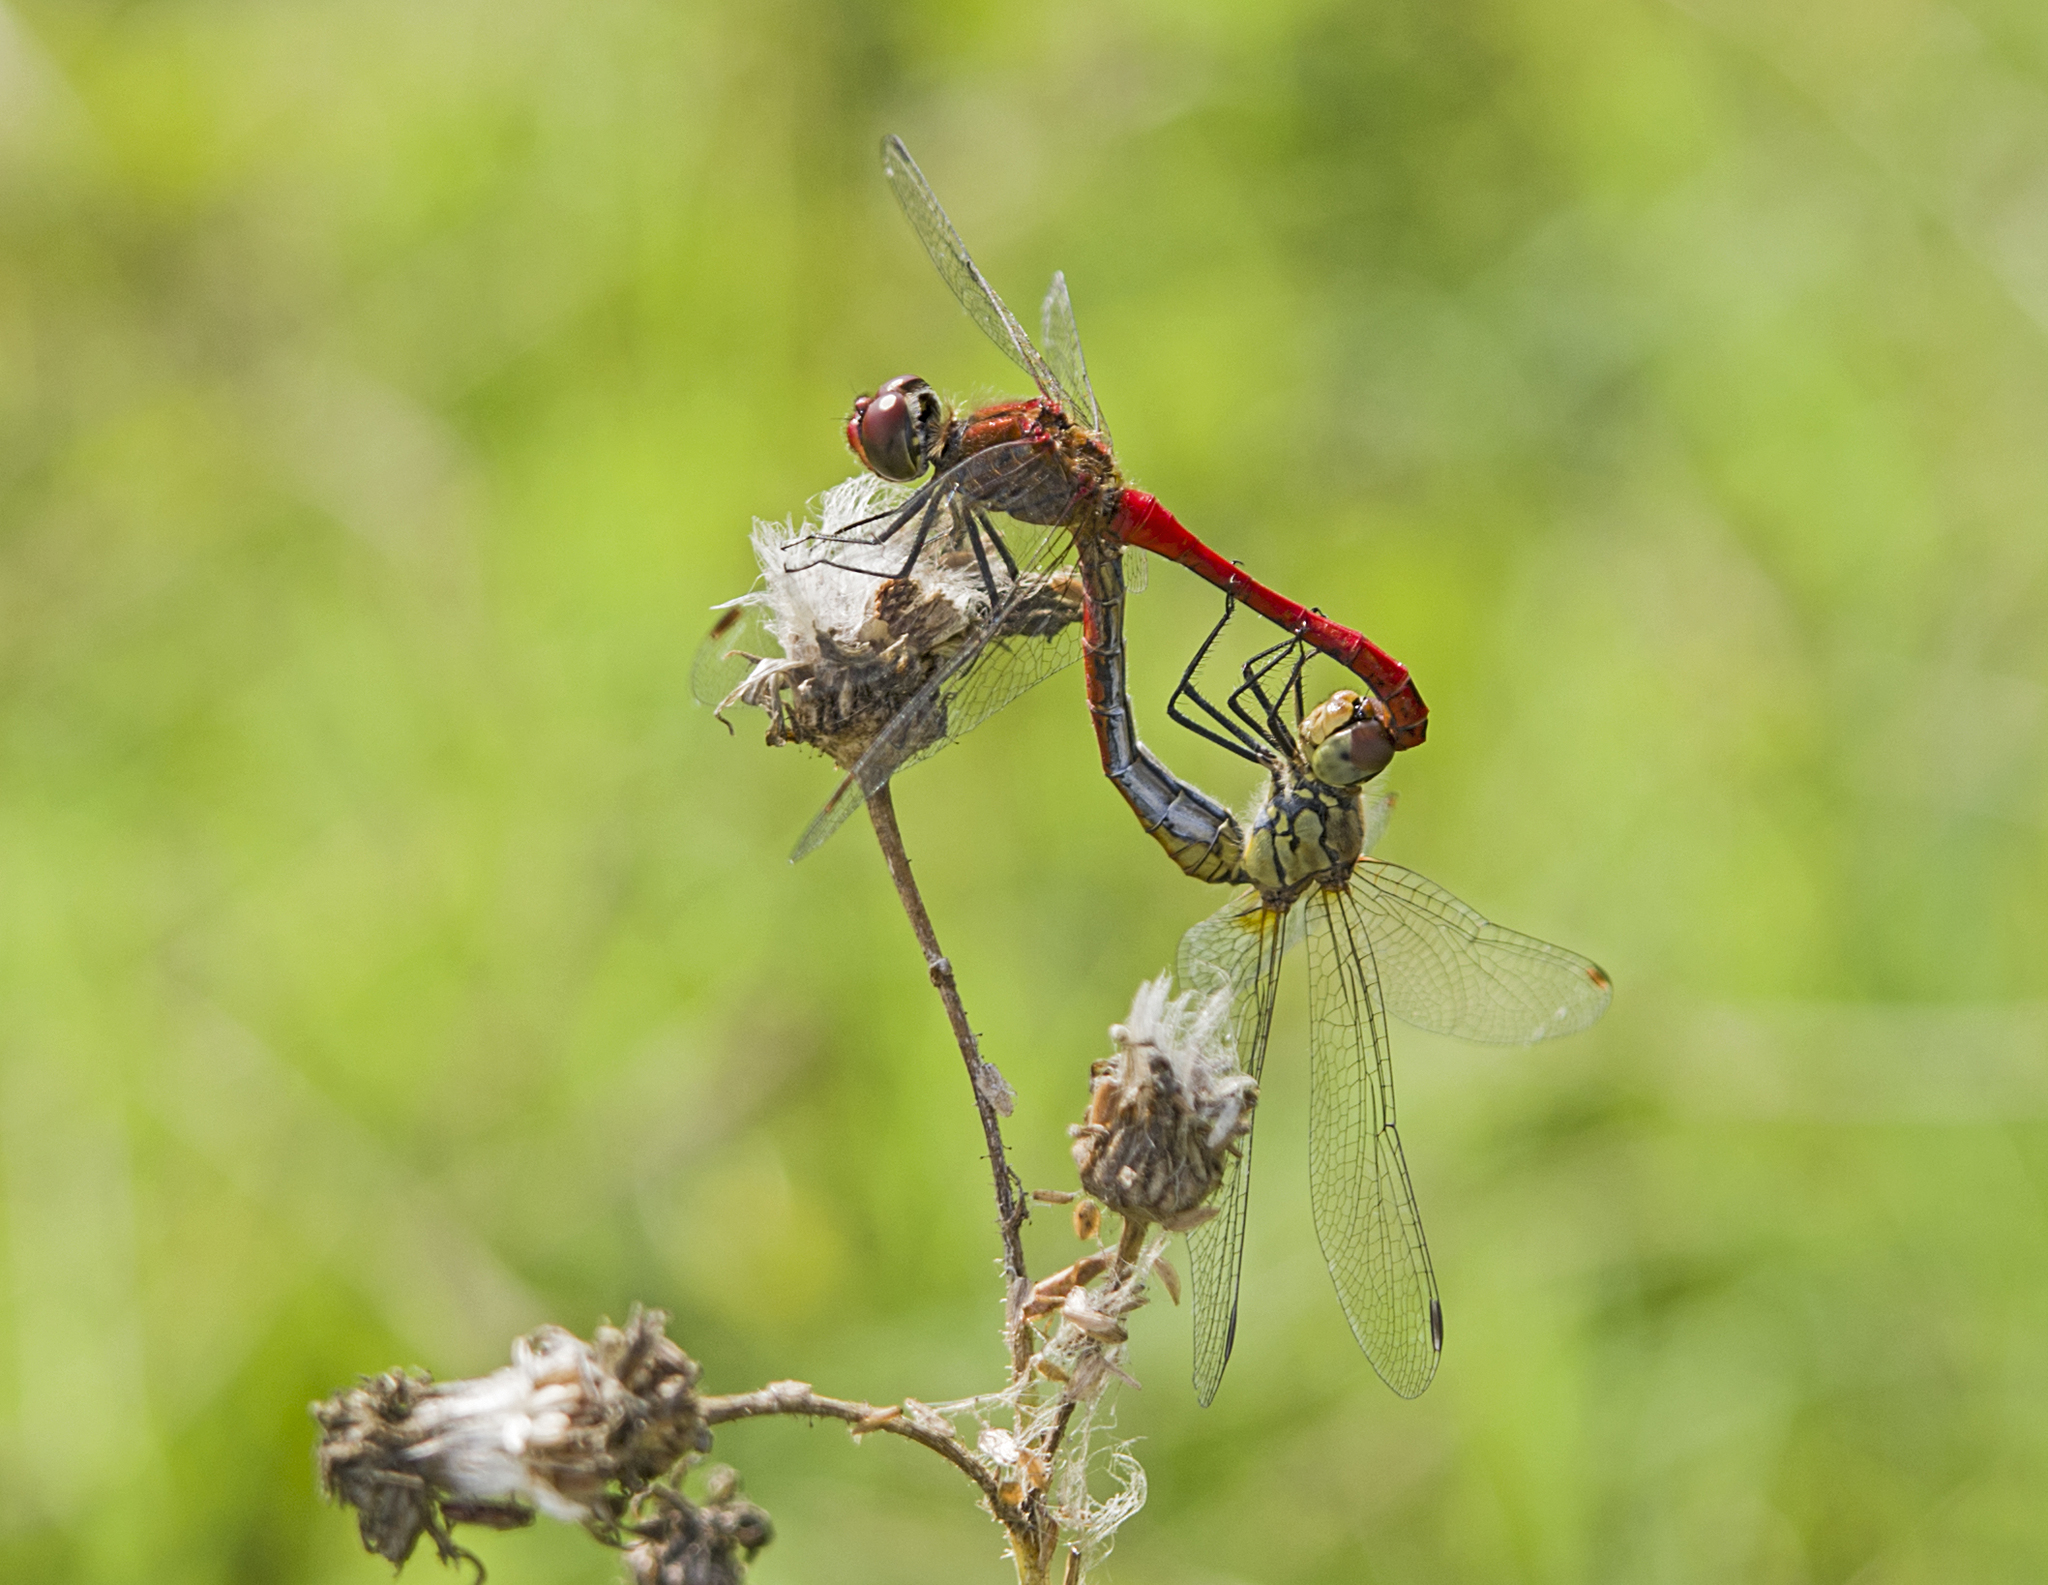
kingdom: Animalia
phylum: Arthropoda
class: Insecta
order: Odonata
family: Libellulidae
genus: Sympetrum
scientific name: Sympetrum sanguineum
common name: Ruddy darter
